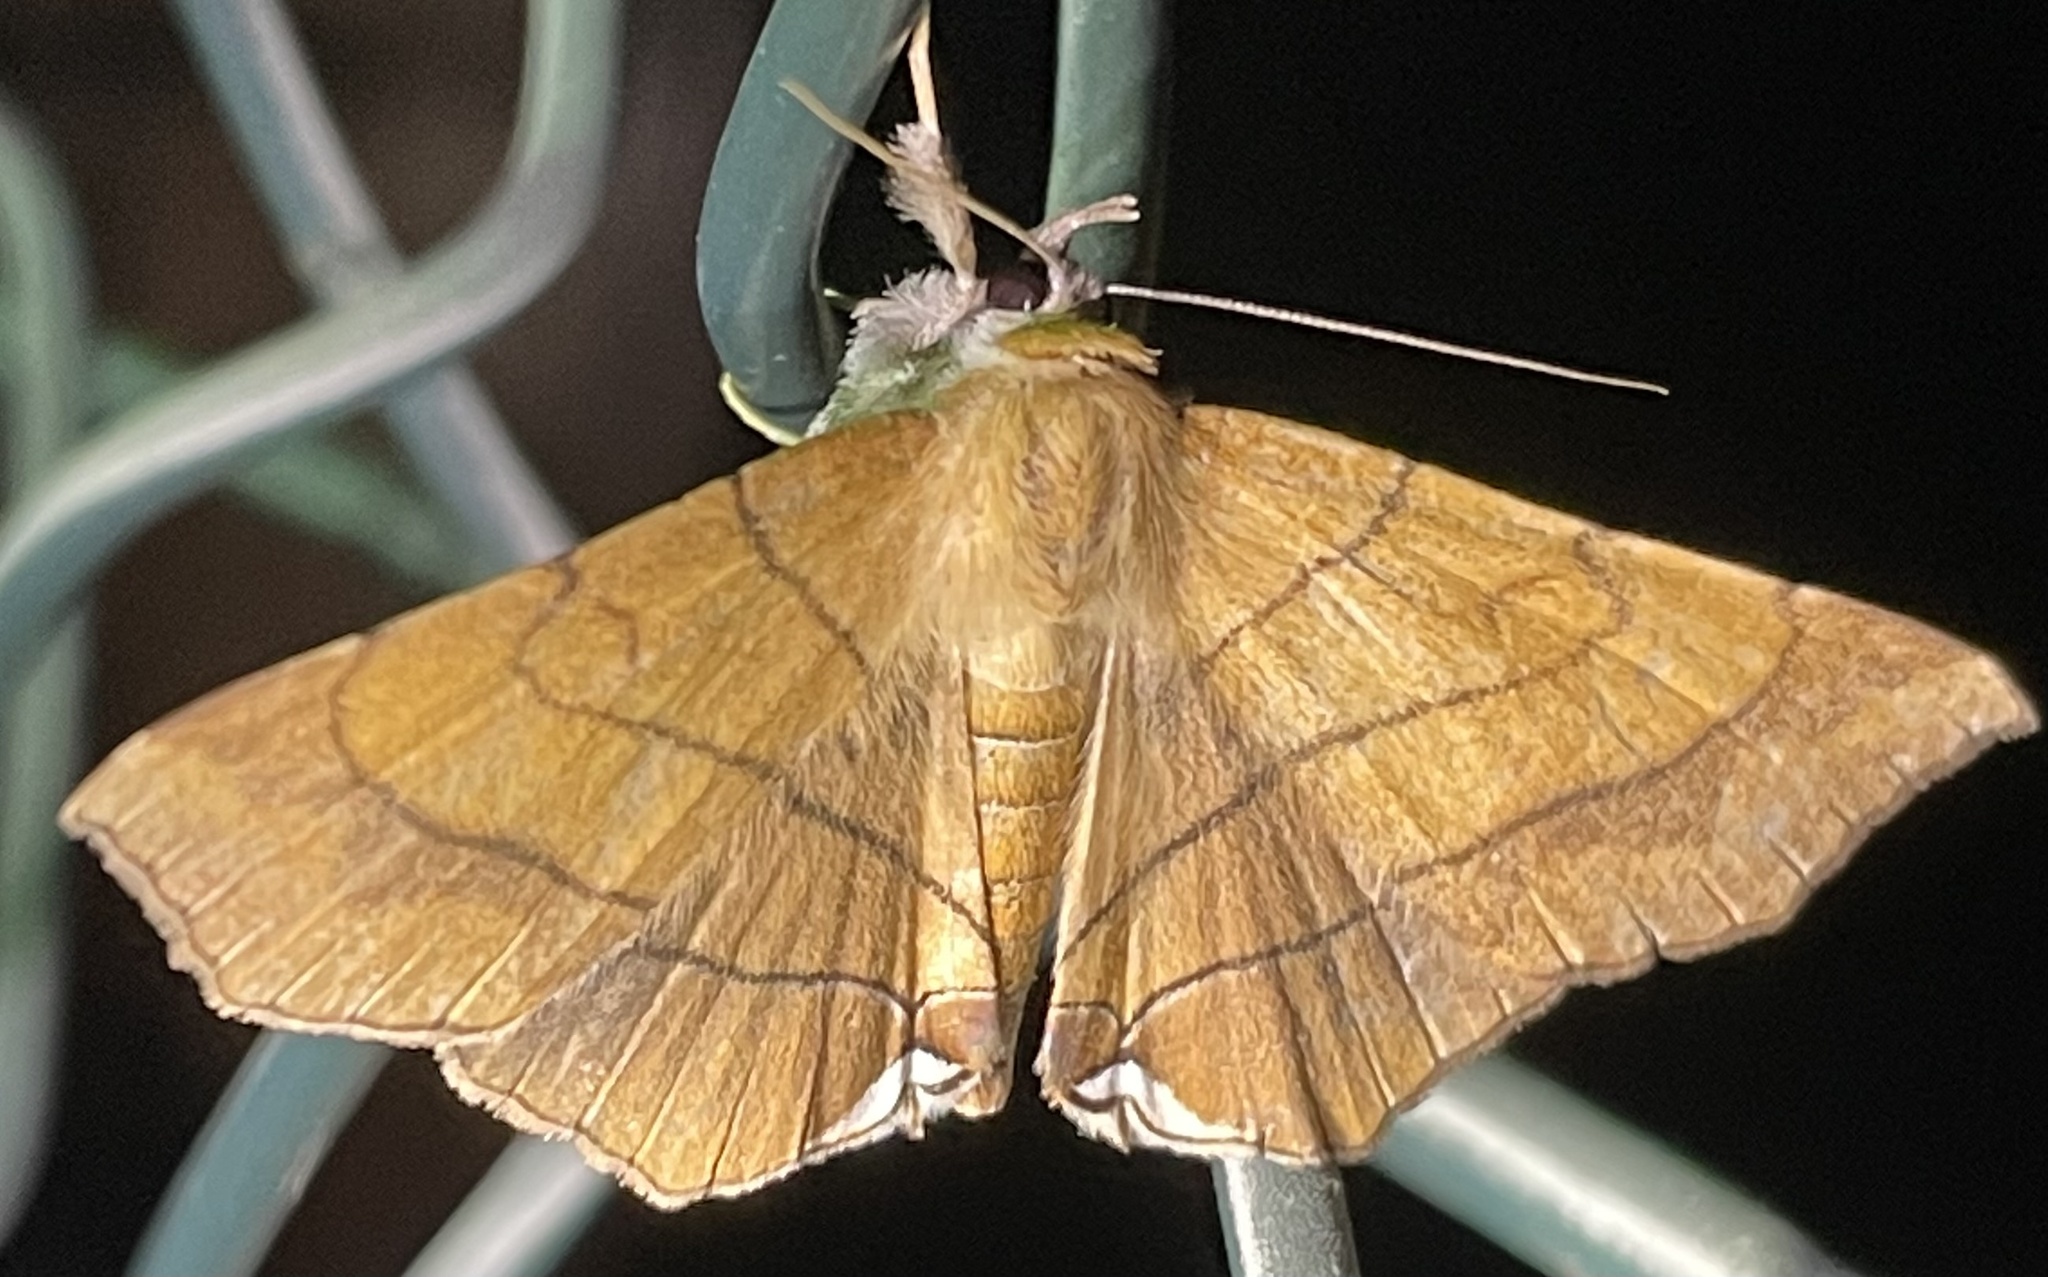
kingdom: Animalia
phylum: Arthropoda
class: Insecta
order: Lepidoptera
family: Erebidae
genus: Gracilodes
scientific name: Gracilodes caffra
